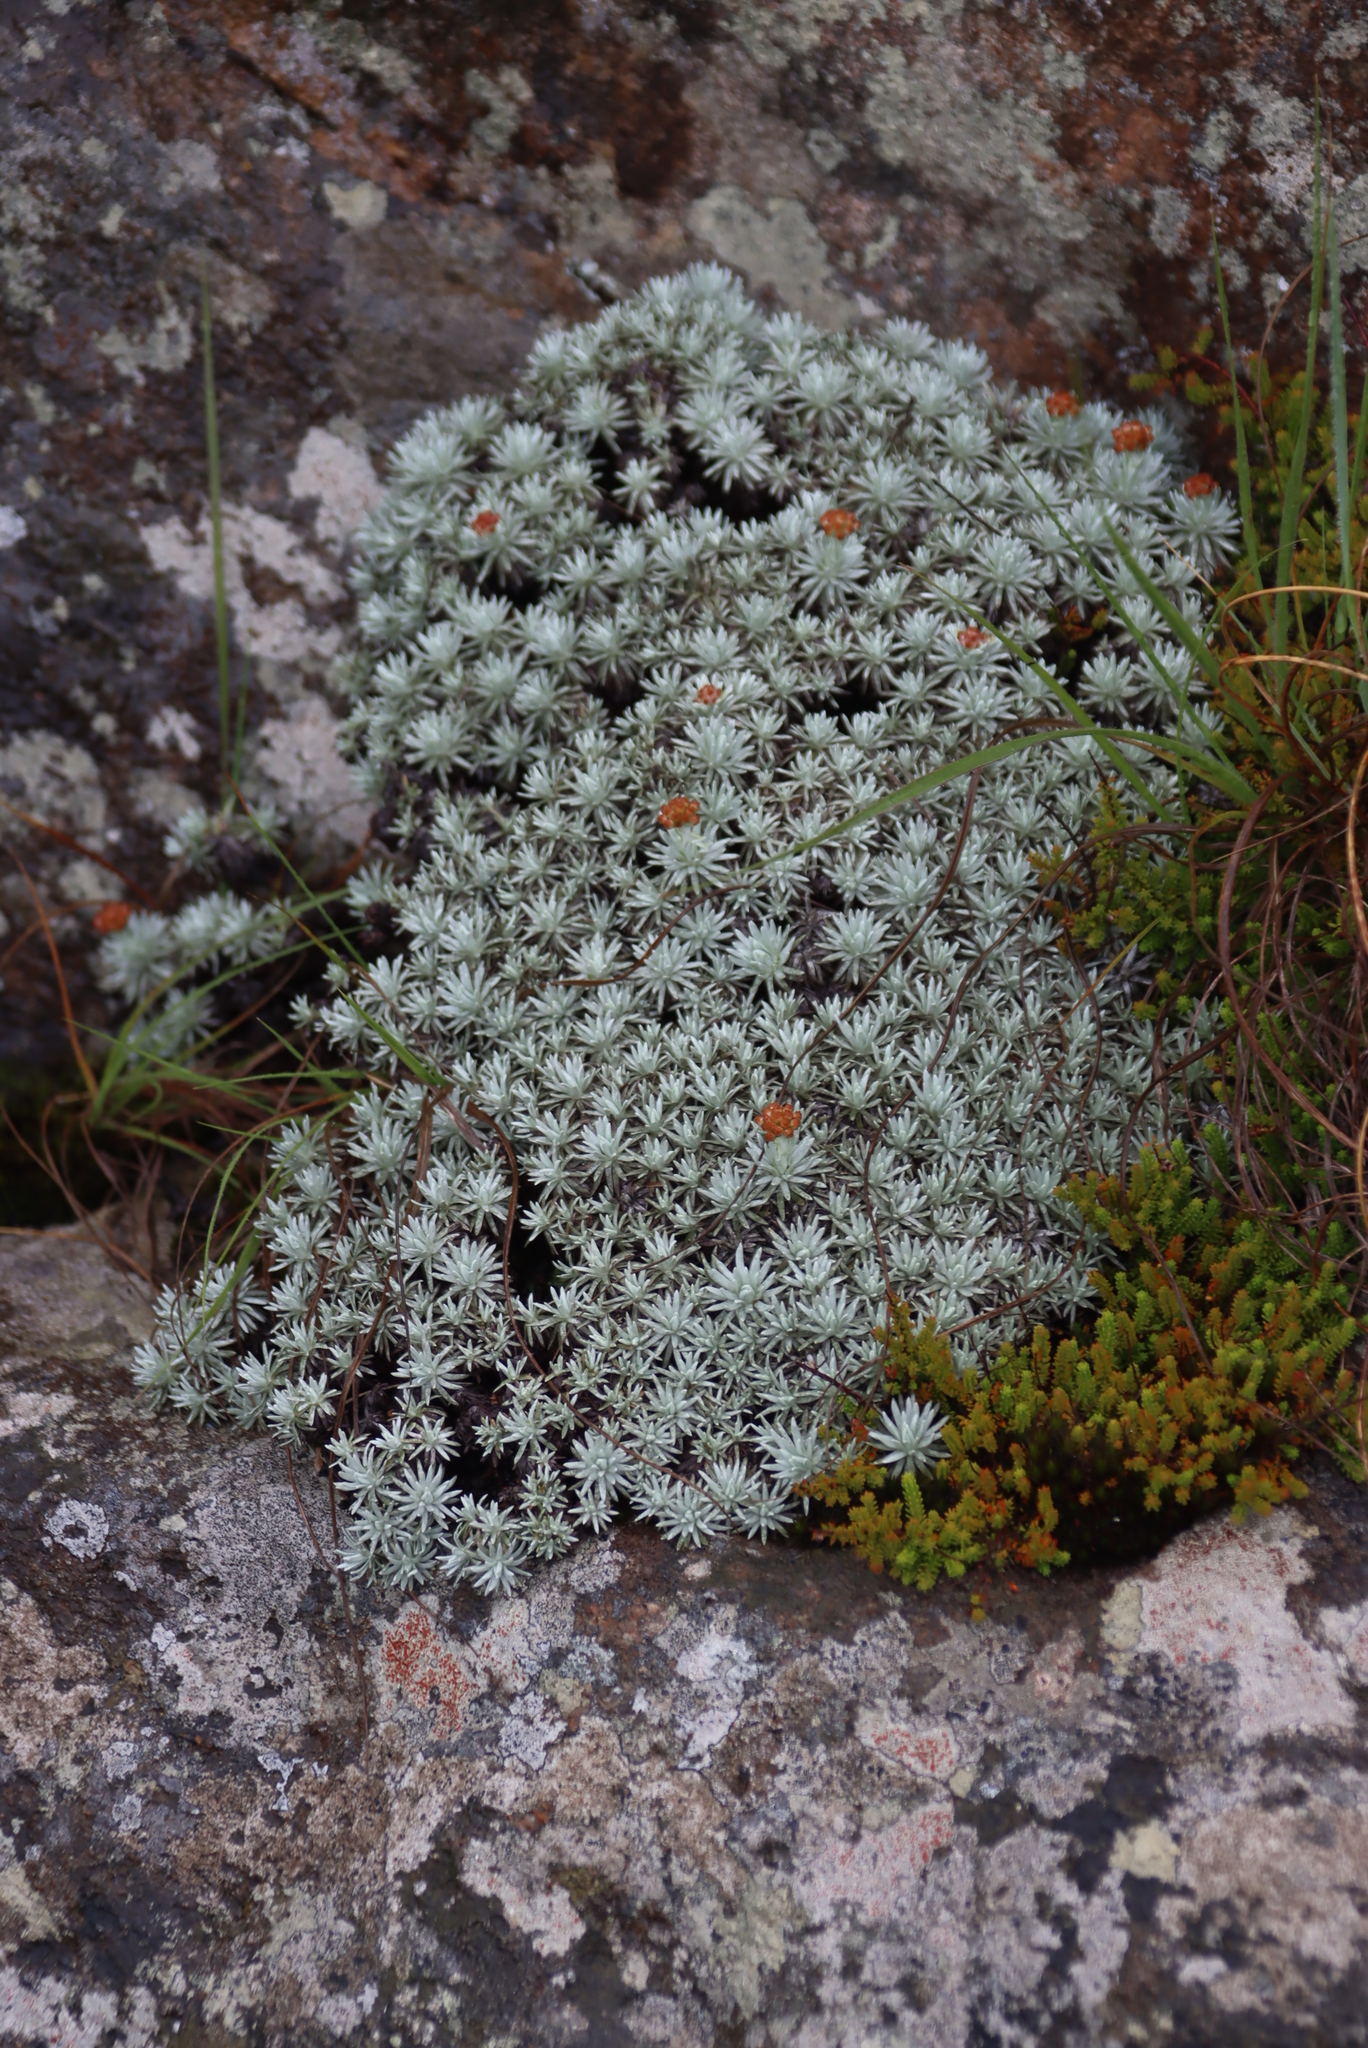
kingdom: Plantae
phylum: Tracheophyta
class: Magnoliopsida
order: Asterales
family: Asteraceae
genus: Helichrysum
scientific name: Helichrysum galpinii
